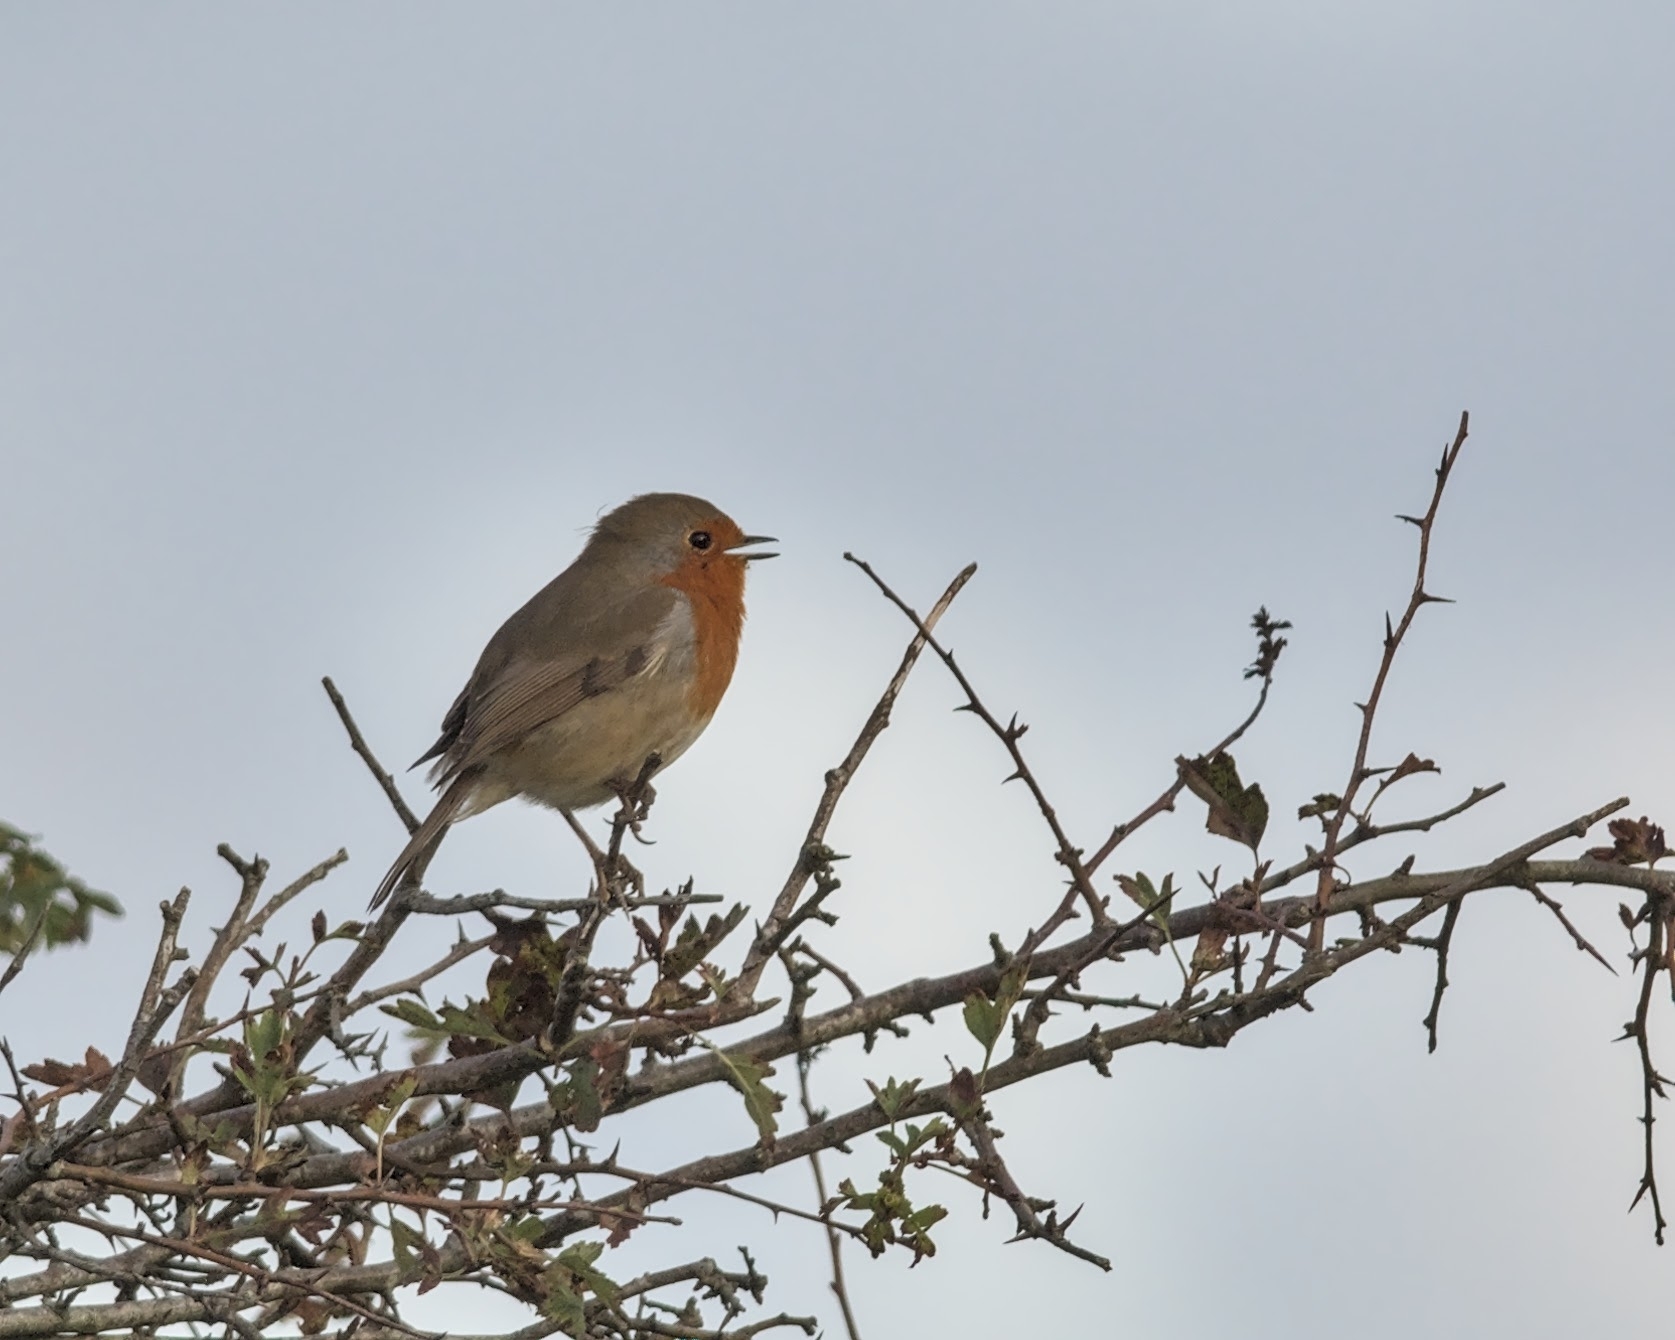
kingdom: Animalia
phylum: Chordata
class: Aves
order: Passeriformes
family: Muscicapidae
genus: Erithacus
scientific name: Erithacus rubecula
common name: European robin
